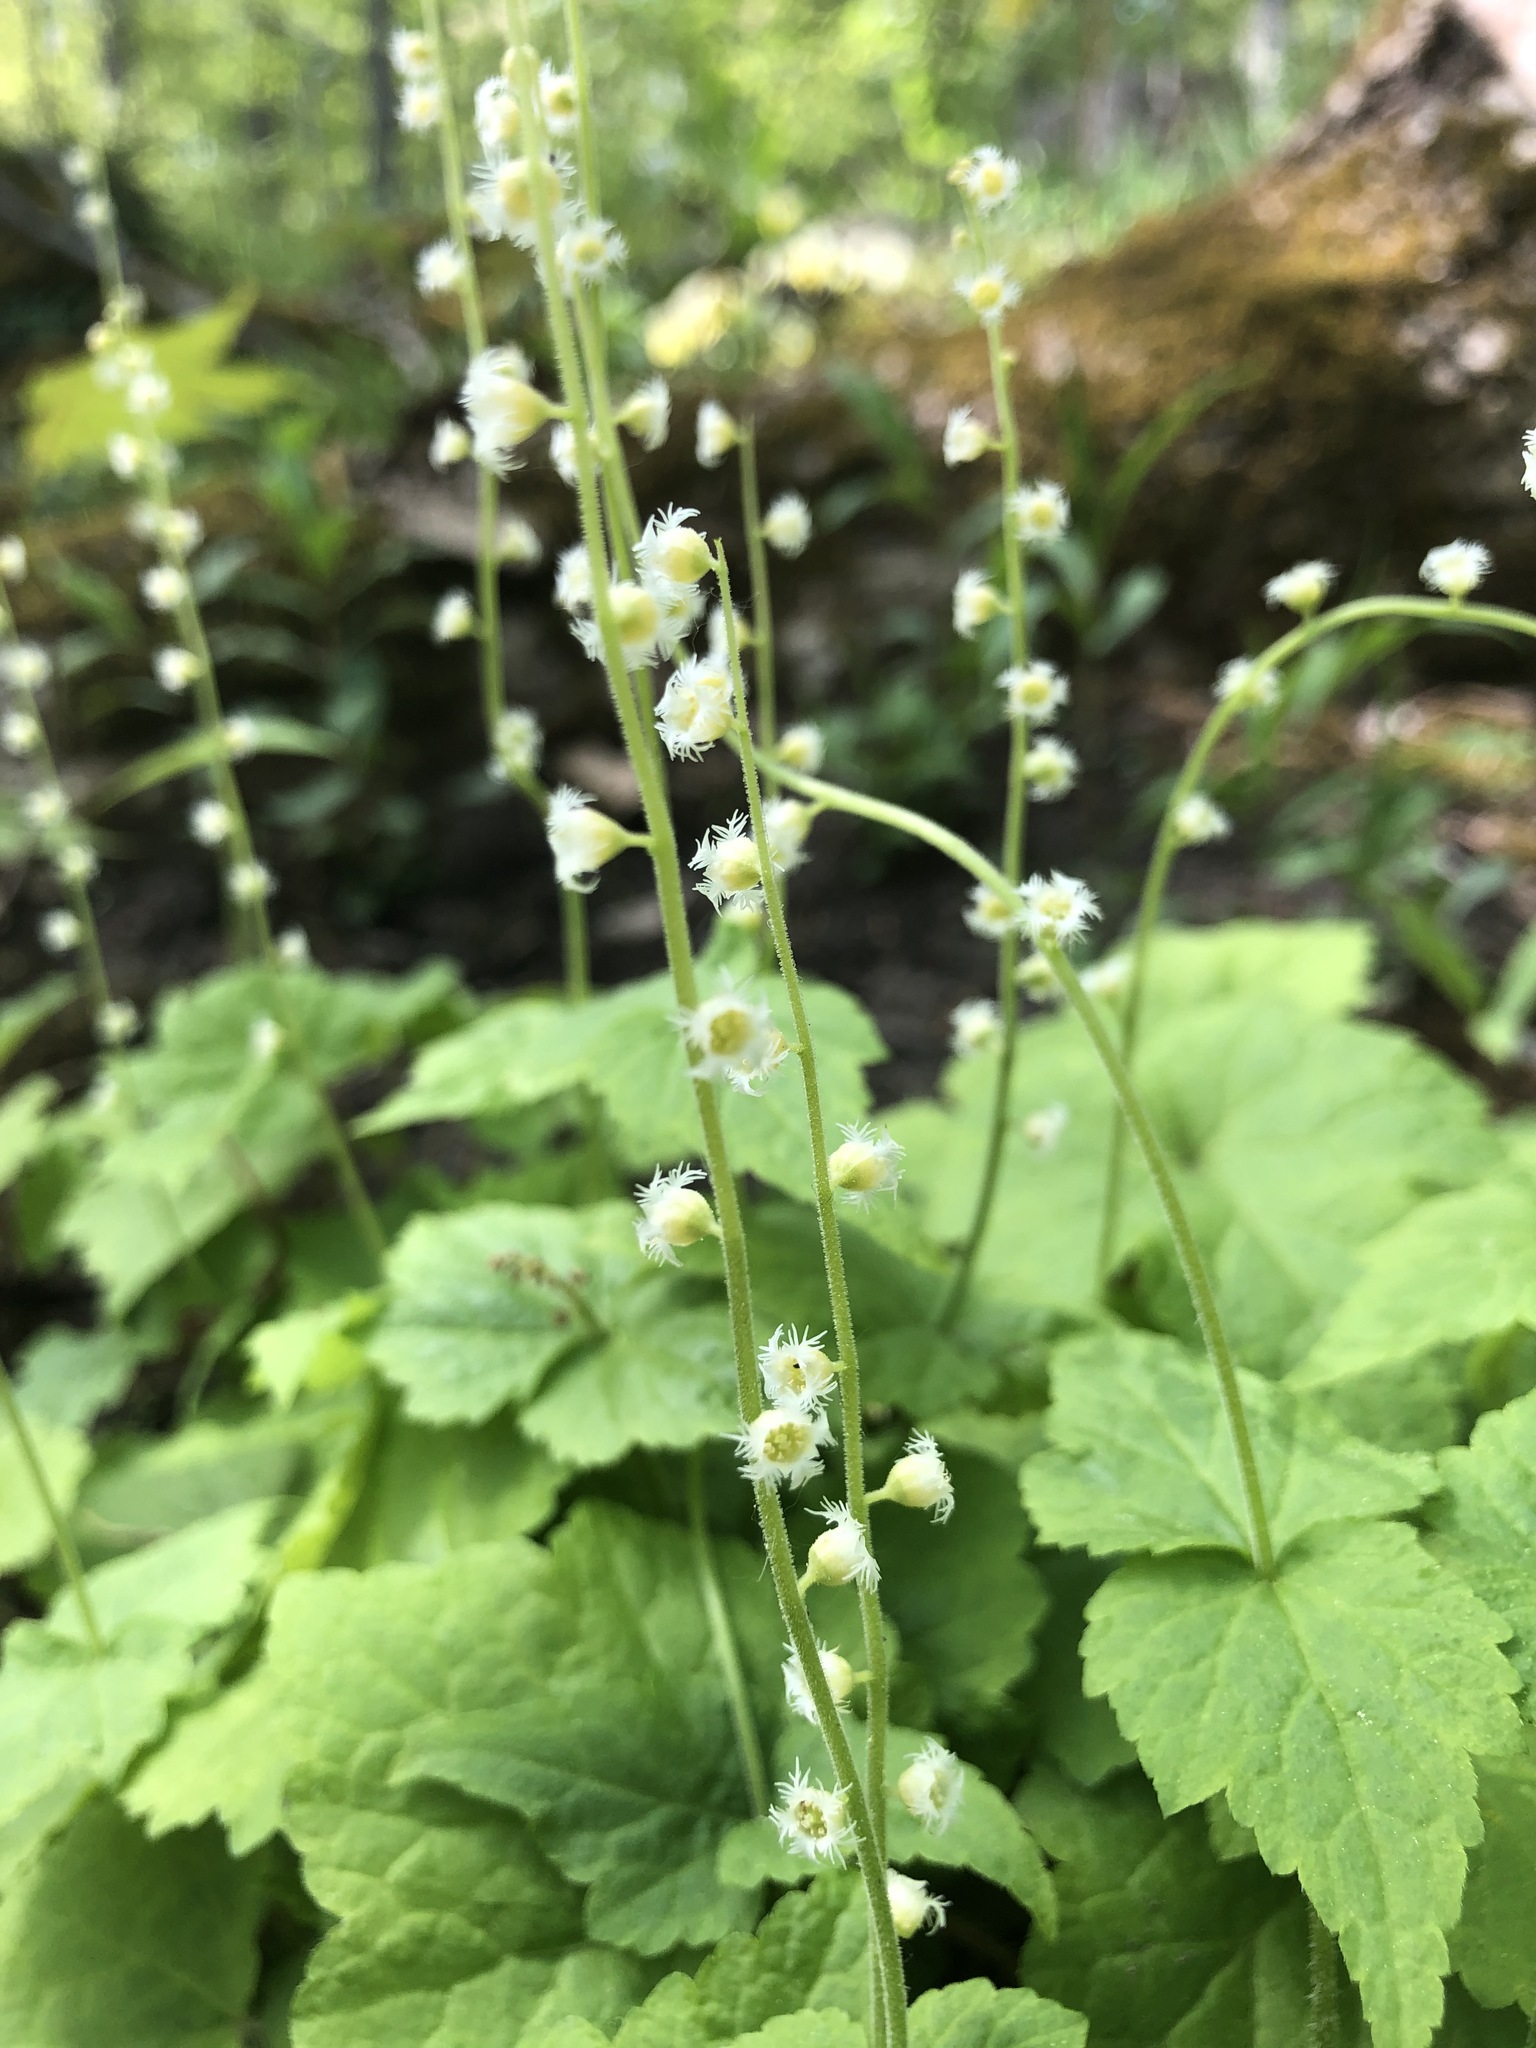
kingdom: Plantae
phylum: Tracheophyta
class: Magnoliopsida
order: Saxifragales
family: Saxifragaceae
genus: Mitella
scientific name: Mitella diphylla
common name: Coolwort
